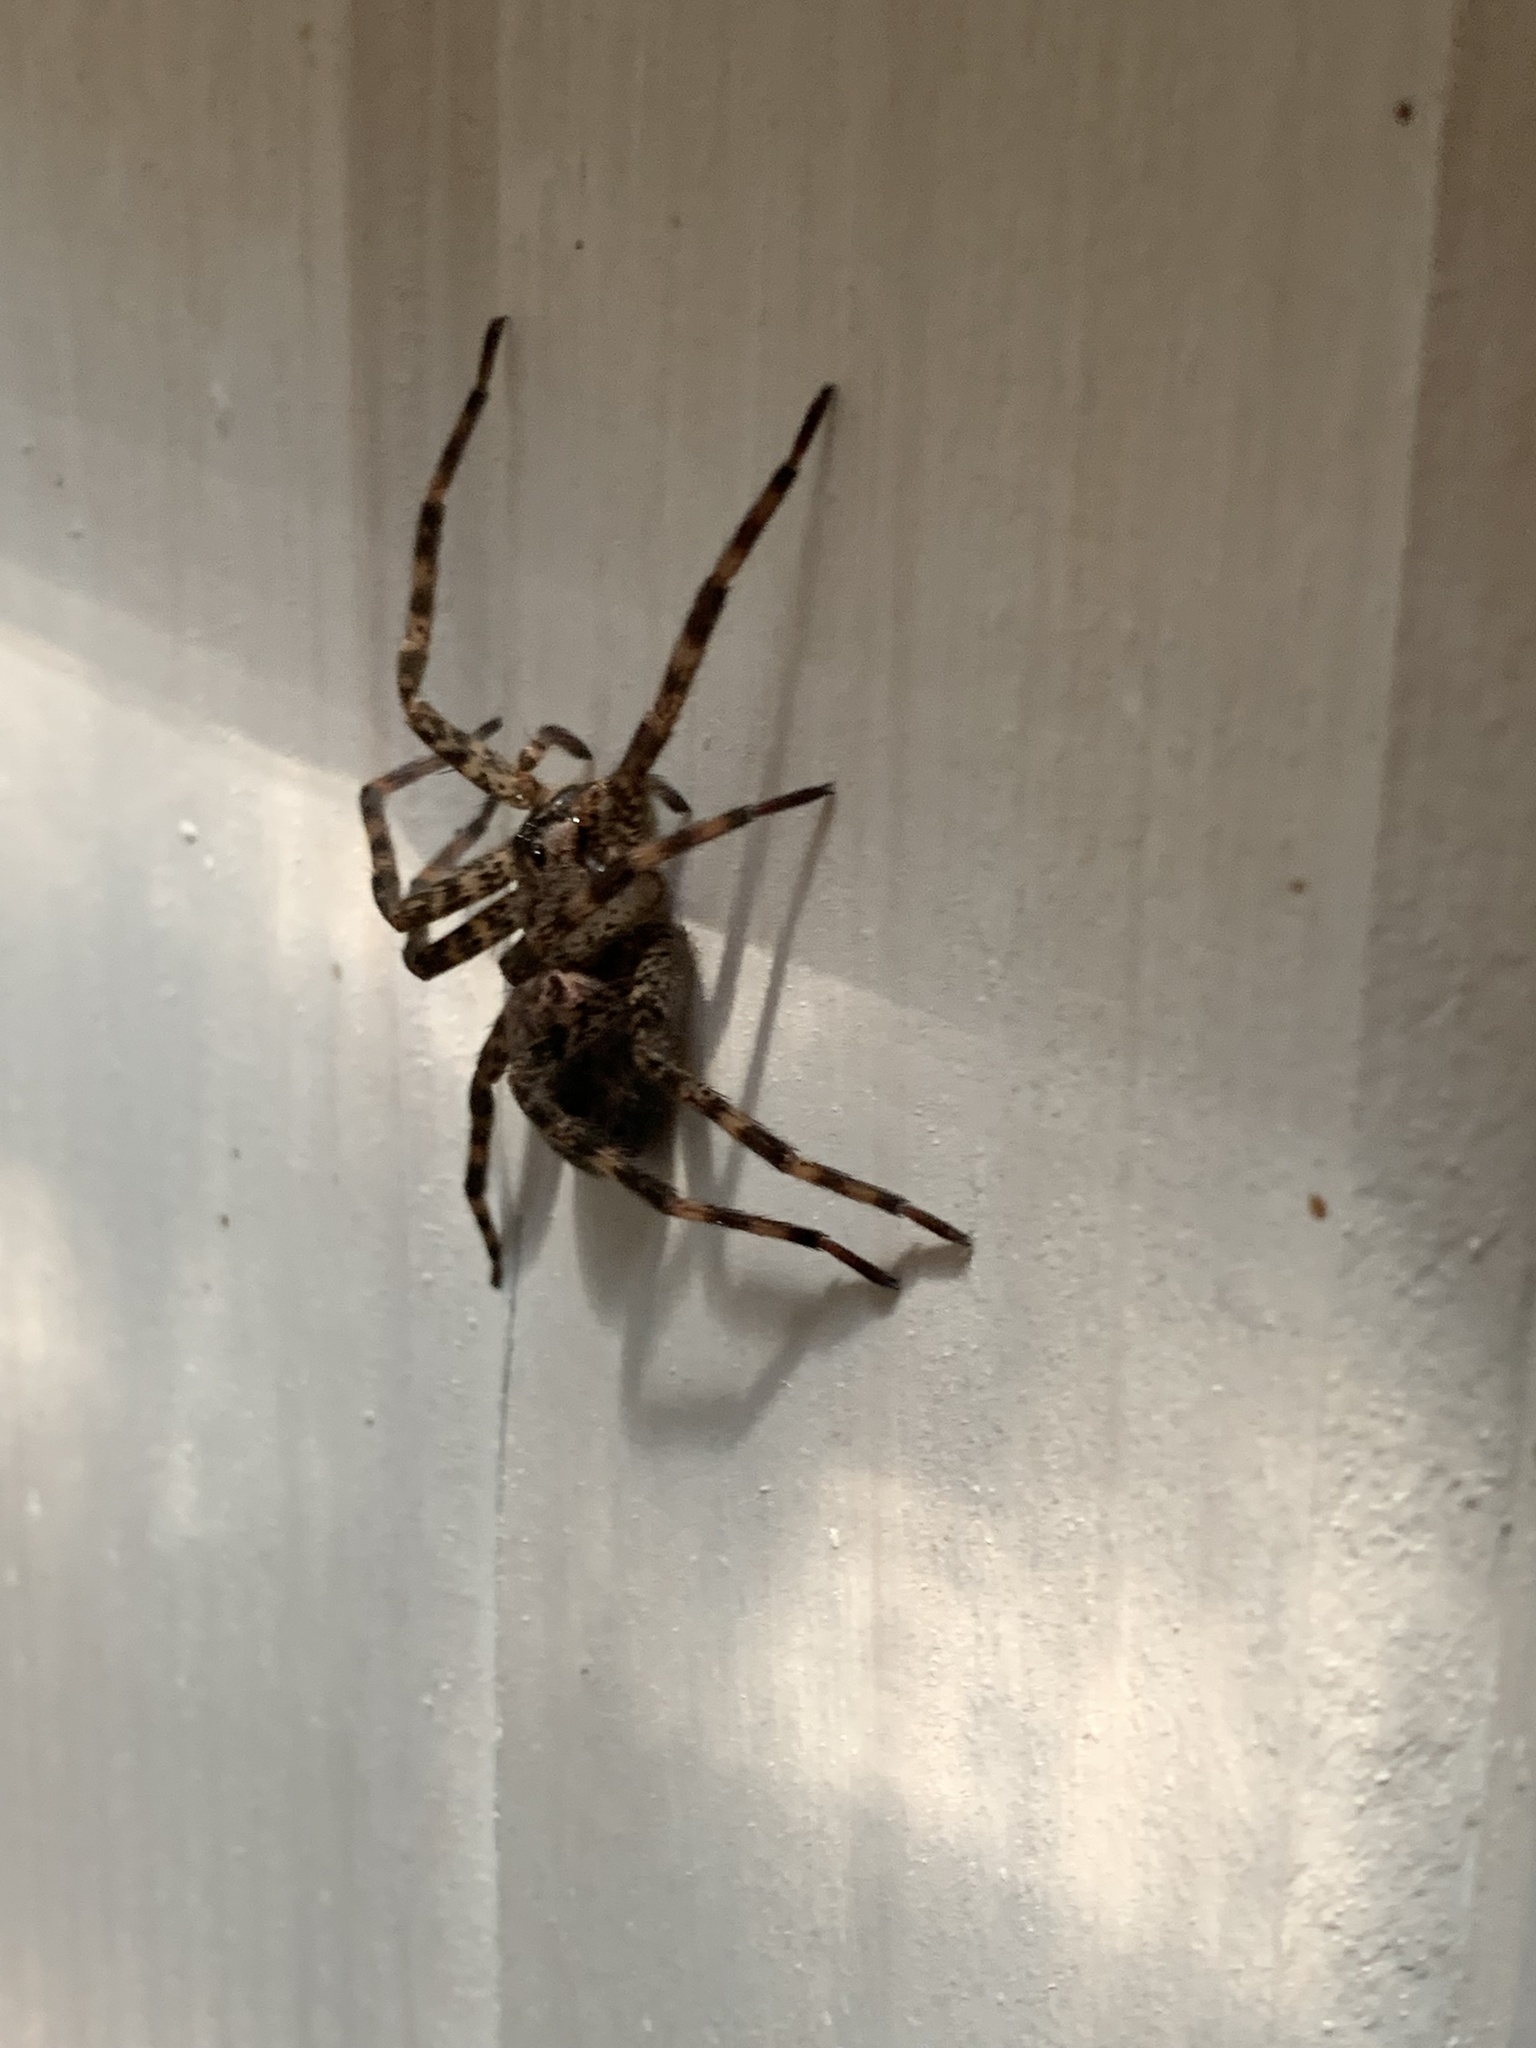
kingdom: Animalia
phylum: Arthropoda
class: Arachnida
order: Araneae
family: Pisauridae
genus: Dolomedes
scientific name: Dolomedes tenebrosus
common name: Dark fishing spider
